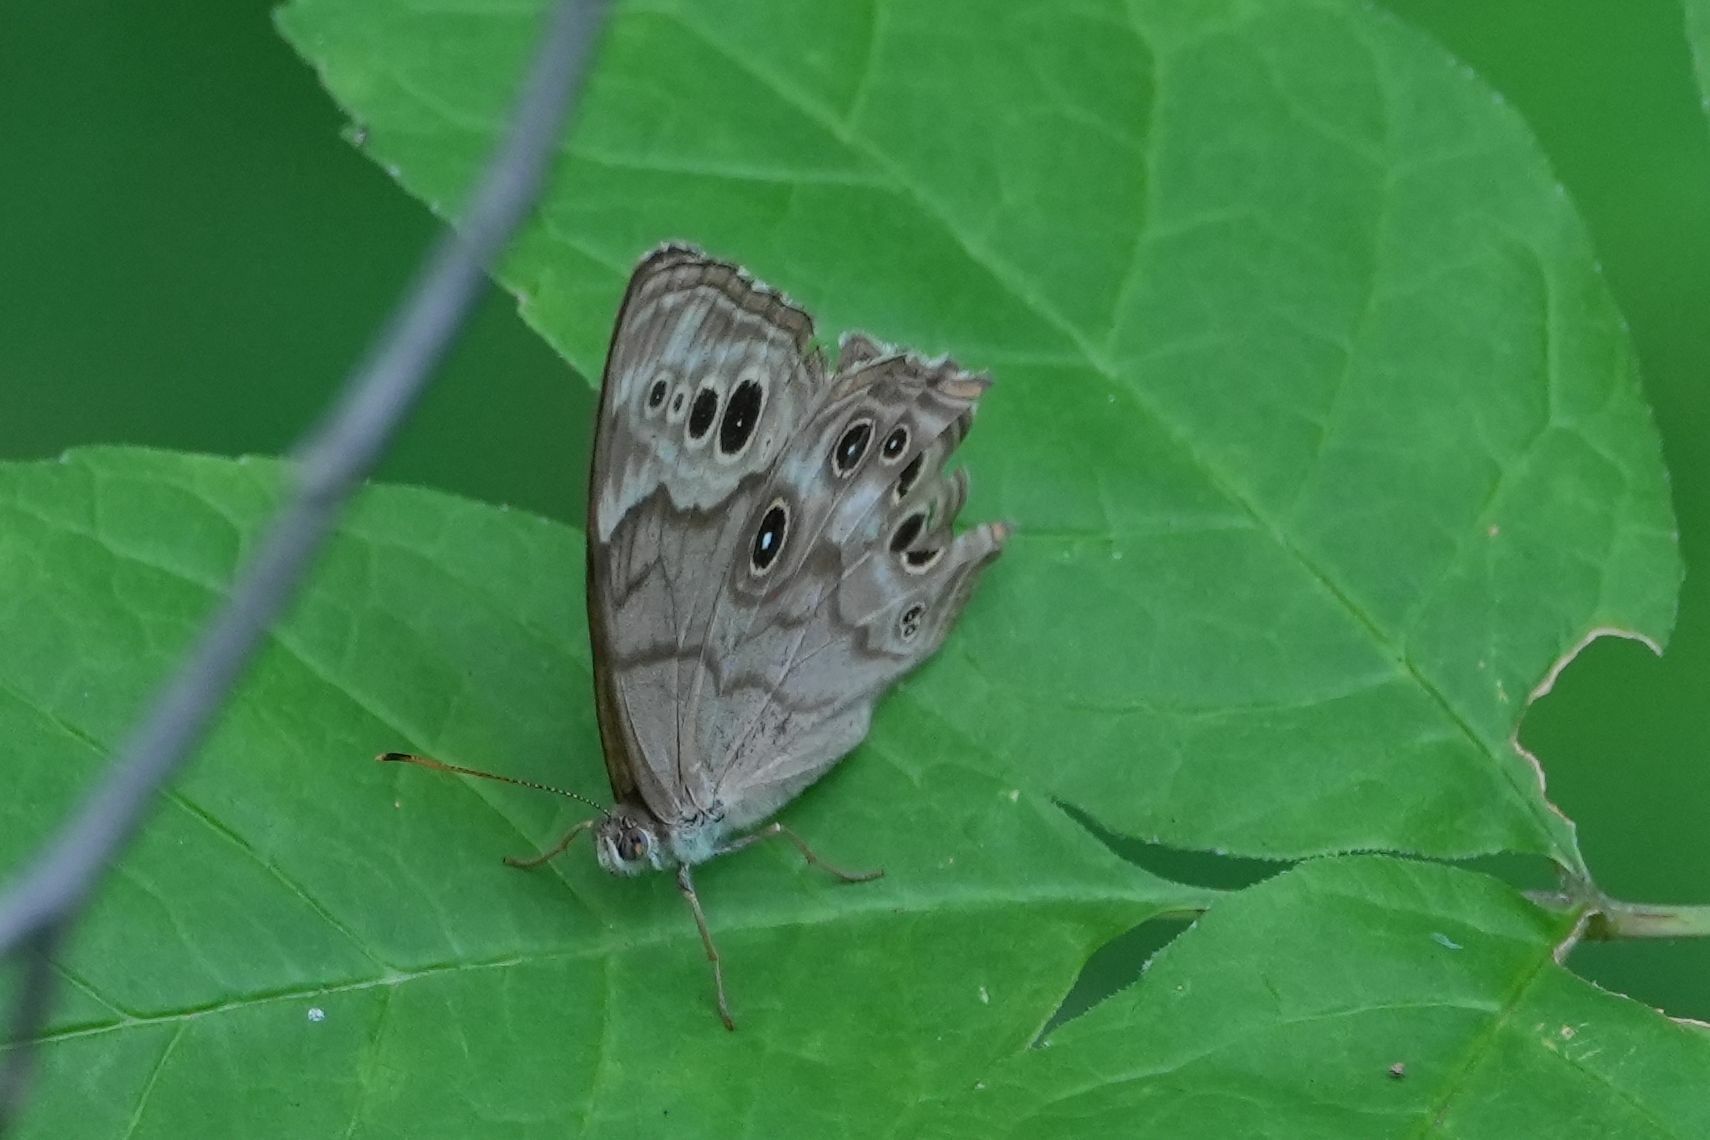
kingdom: Animalia
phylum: Arthropoda
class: Insecta
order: Lepidoptera
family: Nymphalidae
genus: Lethe
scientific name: Lethe anthedon
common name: Northern pearly-eye
